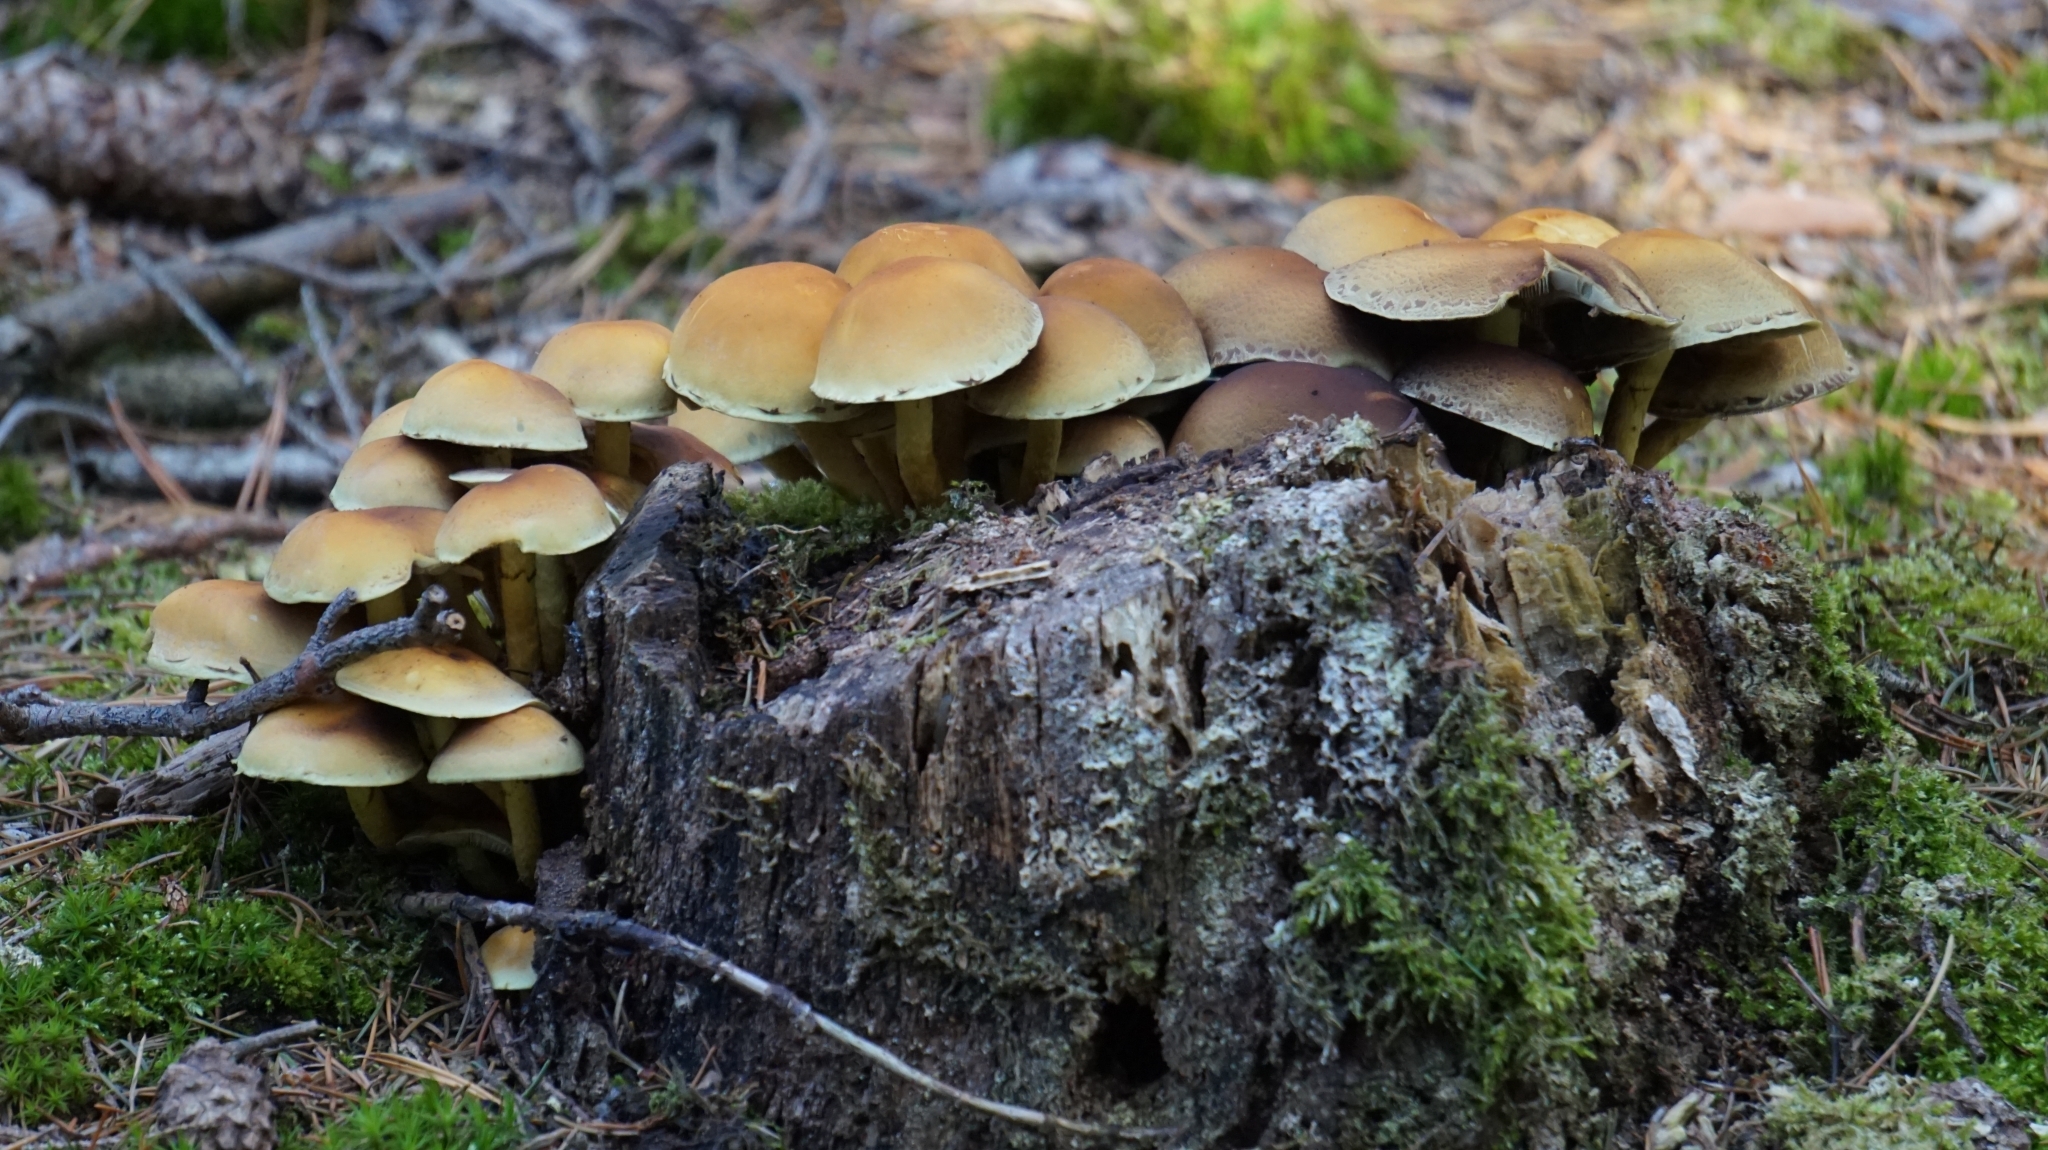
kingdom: Fungi
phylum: Basidiomycota
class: Agaricomycetes
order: Agaricales
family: Strophariaceae
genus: Hypholoma
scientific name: Hypholoma fasciculare
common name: Sulphur tuft
